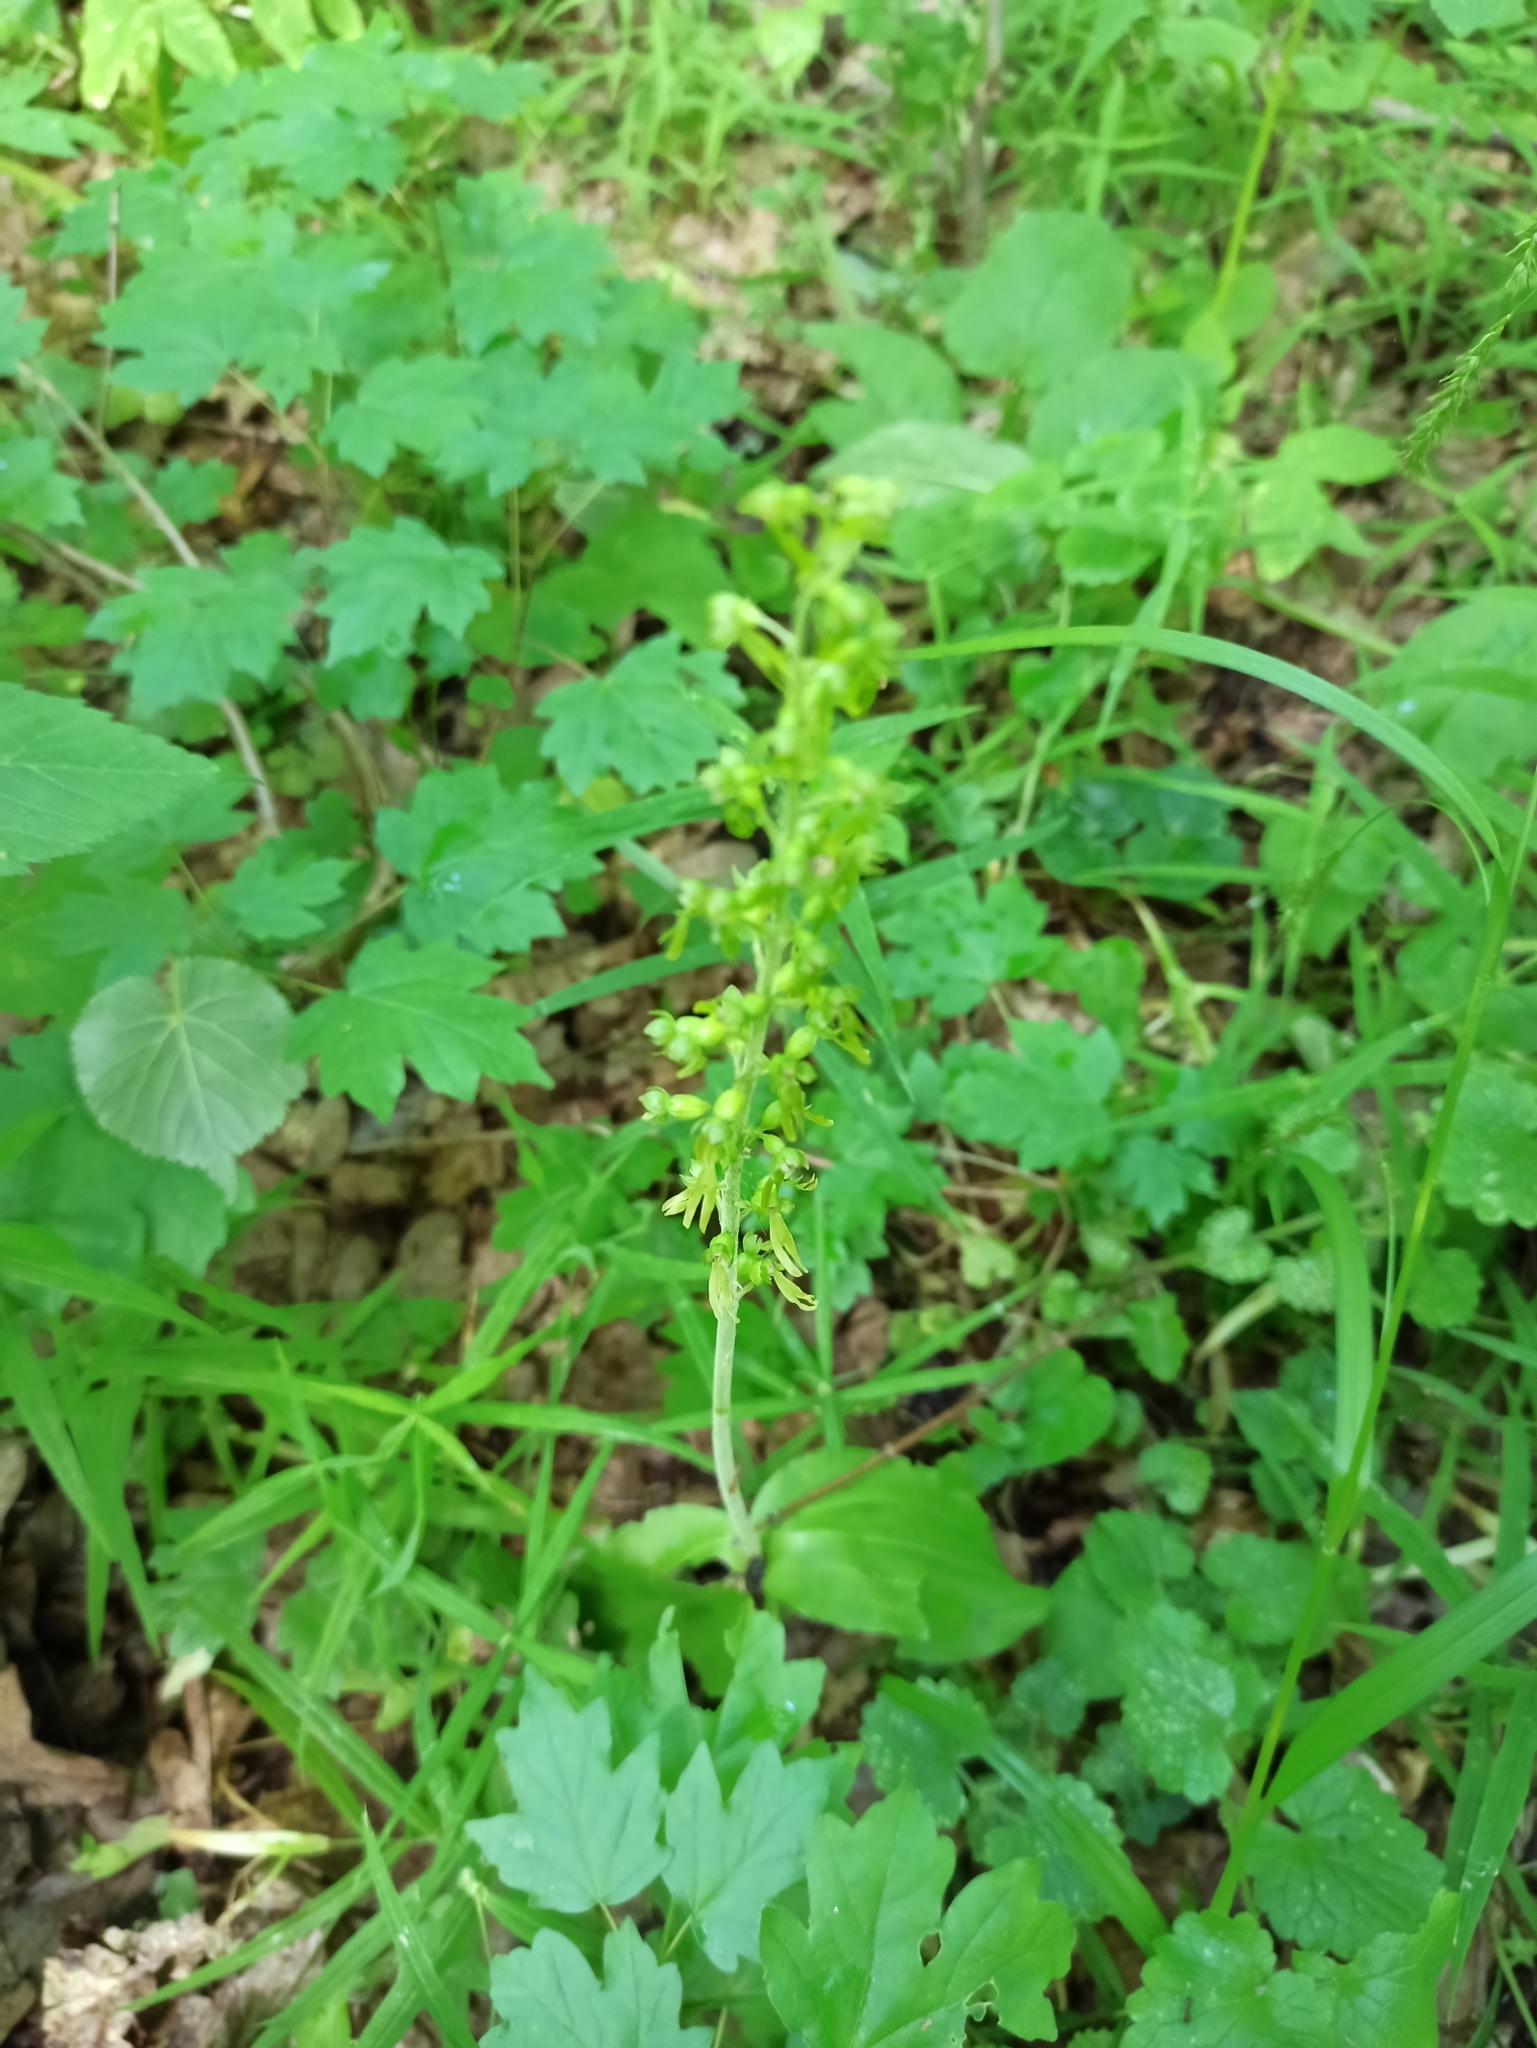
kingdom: Plantae
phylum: Tracheophyta
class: Liliopsida
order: Asparagales
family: Orchidaceae
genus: Neottia
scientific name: Neottia ovata
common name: Common twayblade
